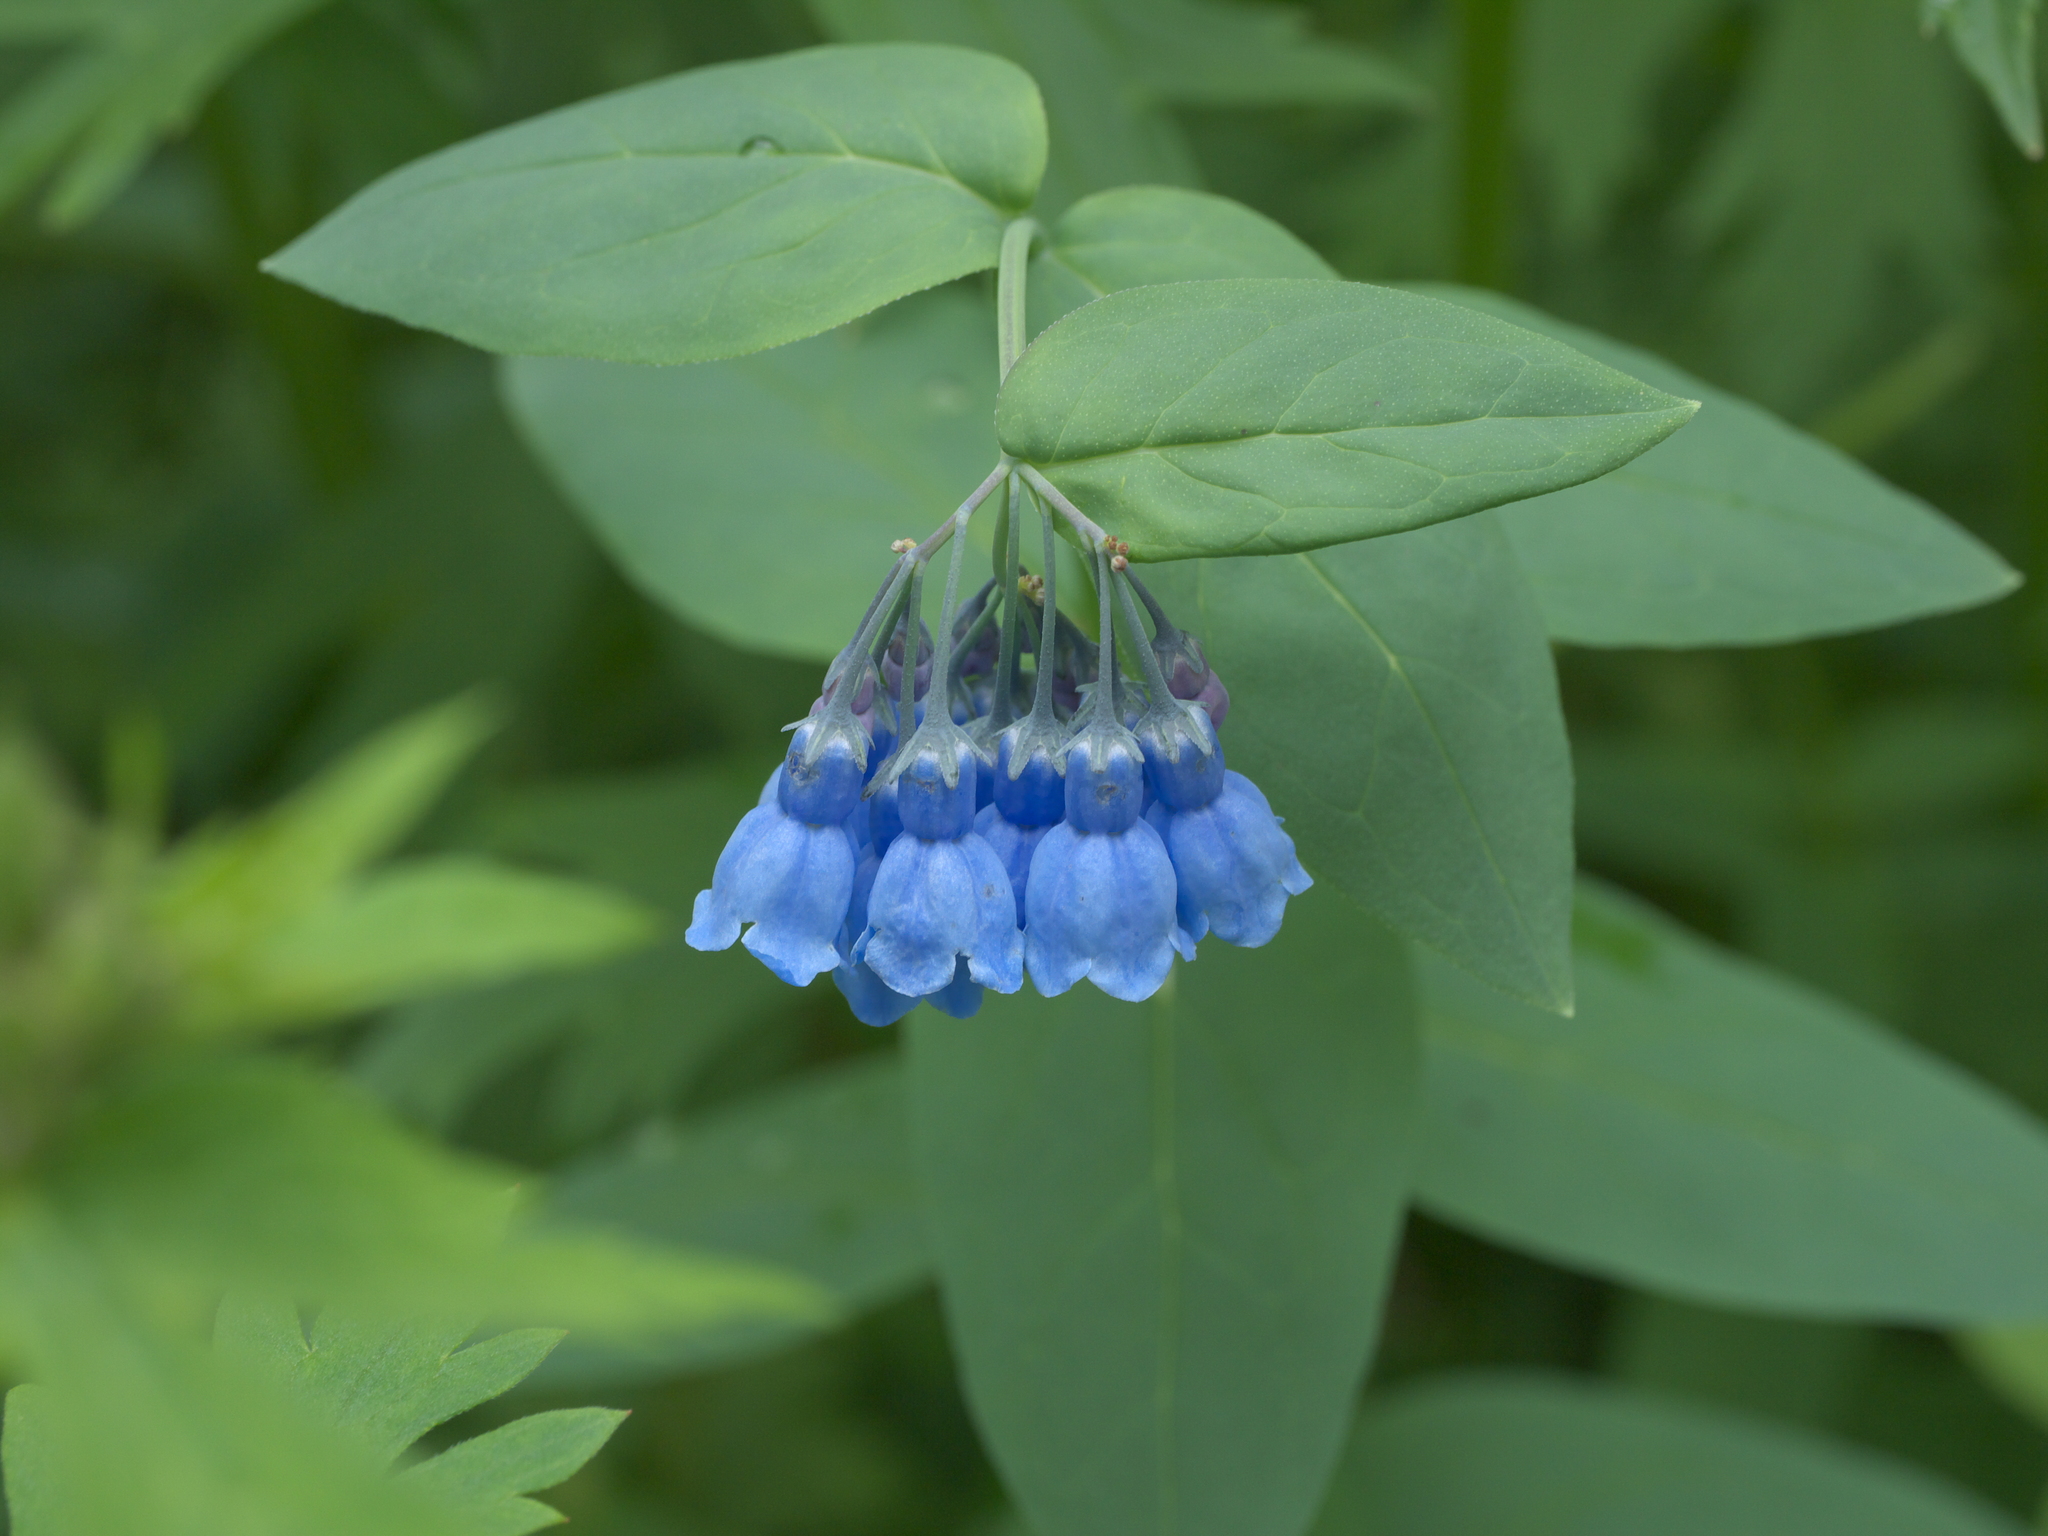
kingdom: Plantae
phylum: Tracheophyta
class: Magnoliopsida
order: Boraginales
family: Boraginaceae
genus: Mertensia
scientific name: Mertensia ciliata
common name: Tall chiming-bells
